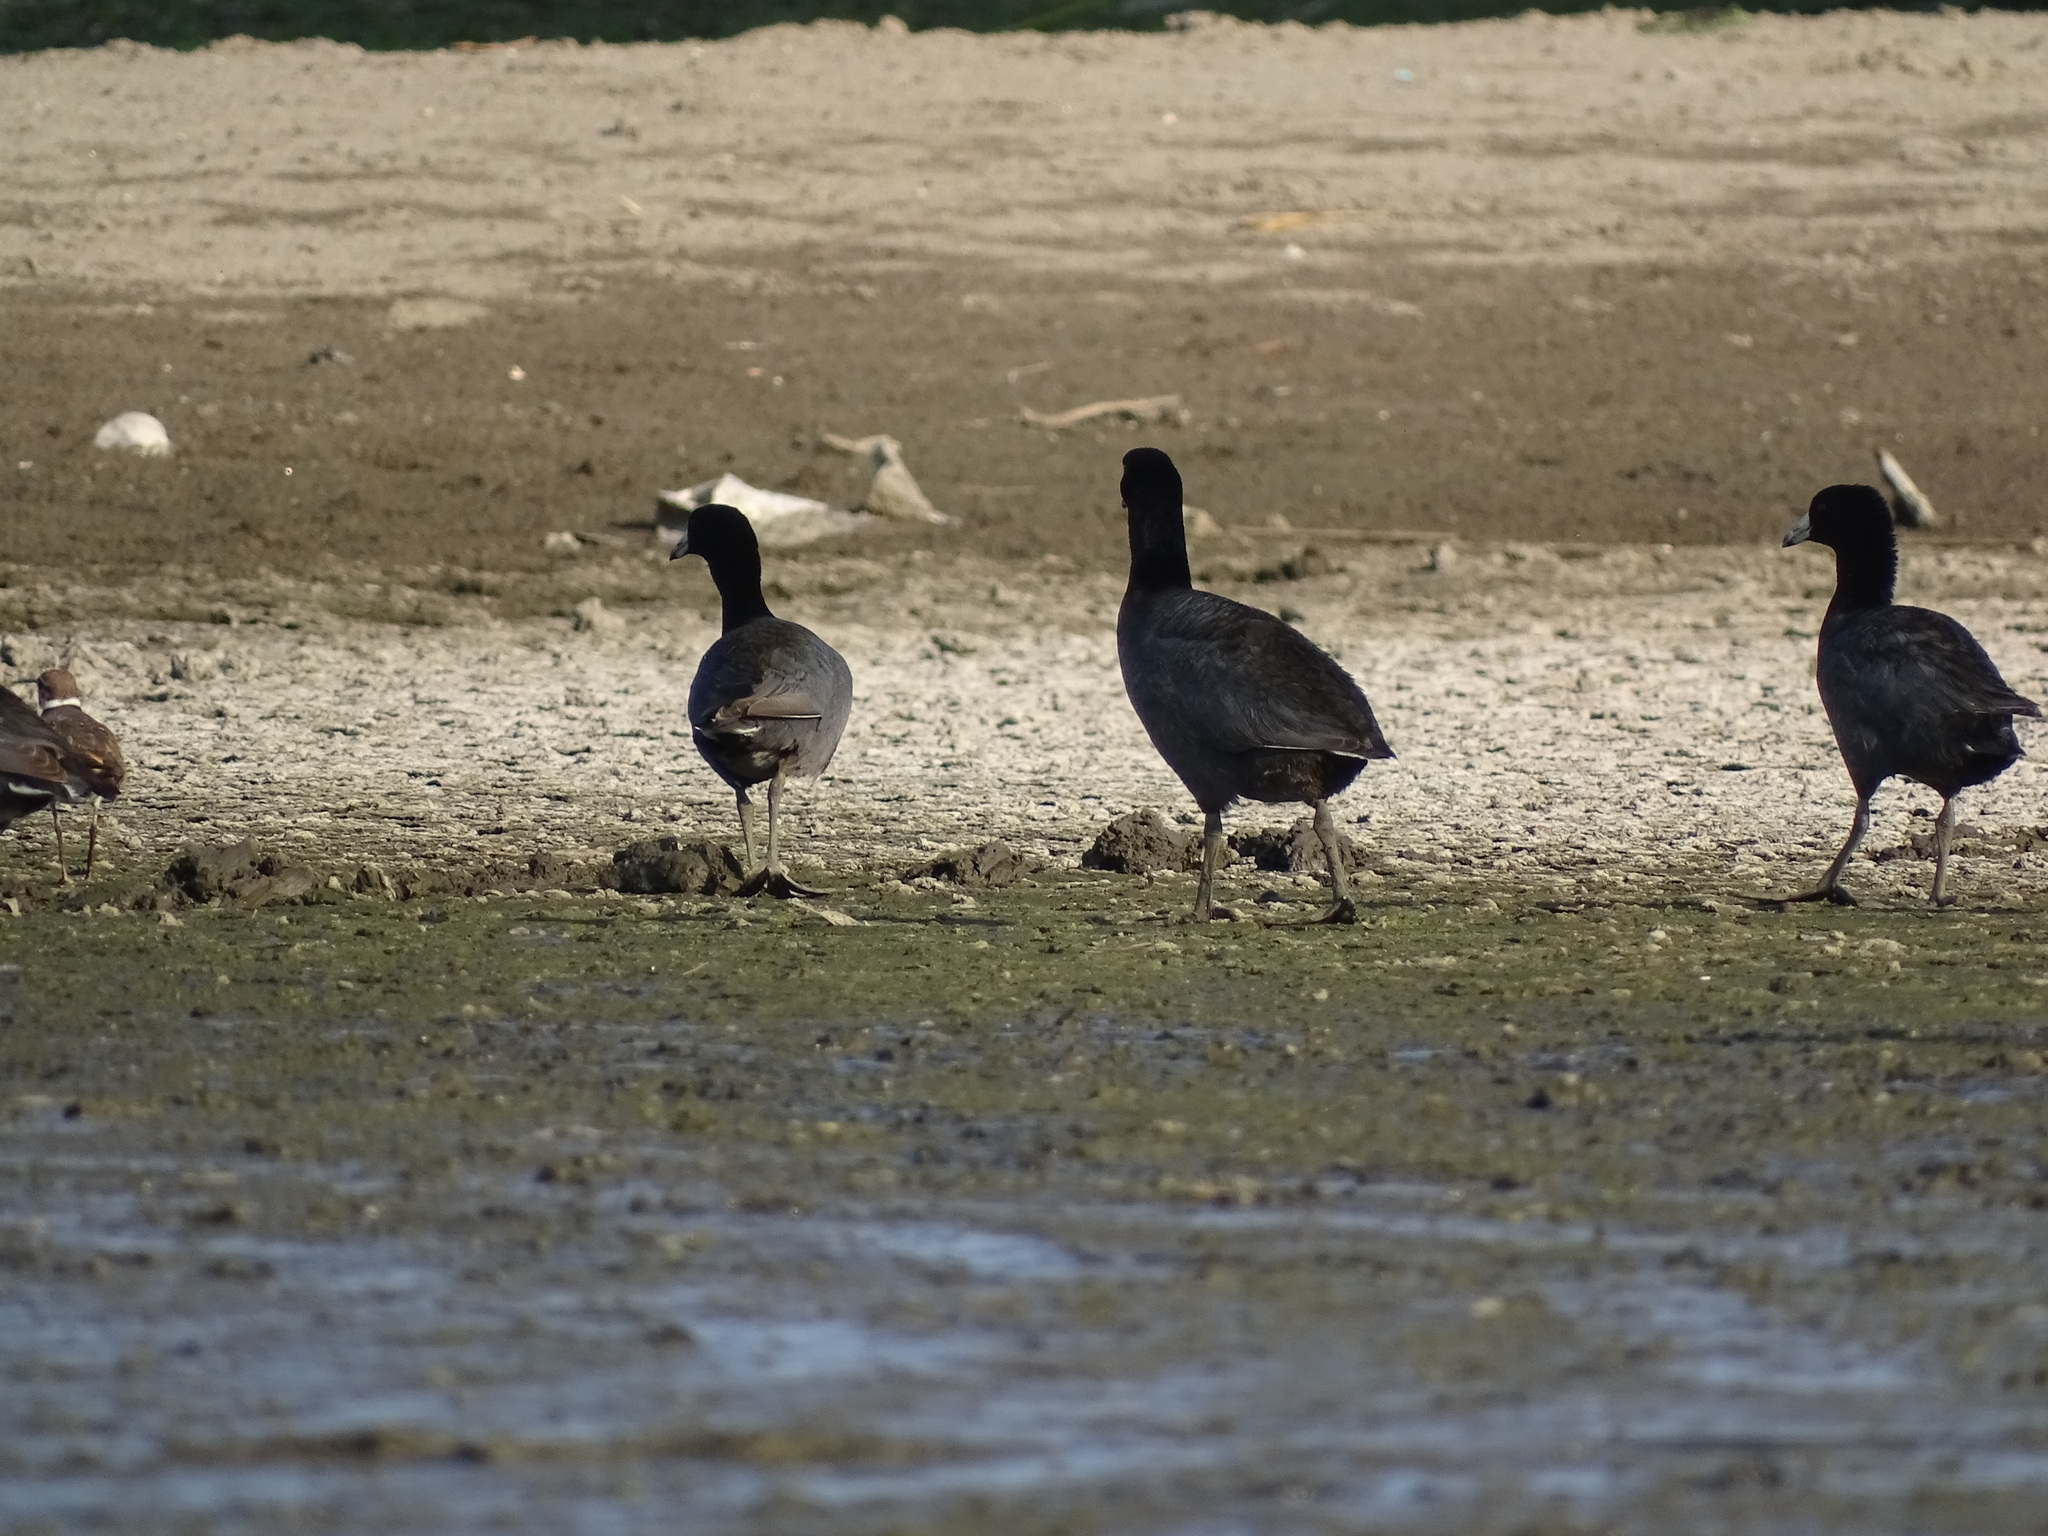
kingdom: Animalia
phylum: Chordata
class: Aves
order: Gruiformes
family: Rallidae
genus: Fulica
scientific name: Fulica americana
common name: American coot
